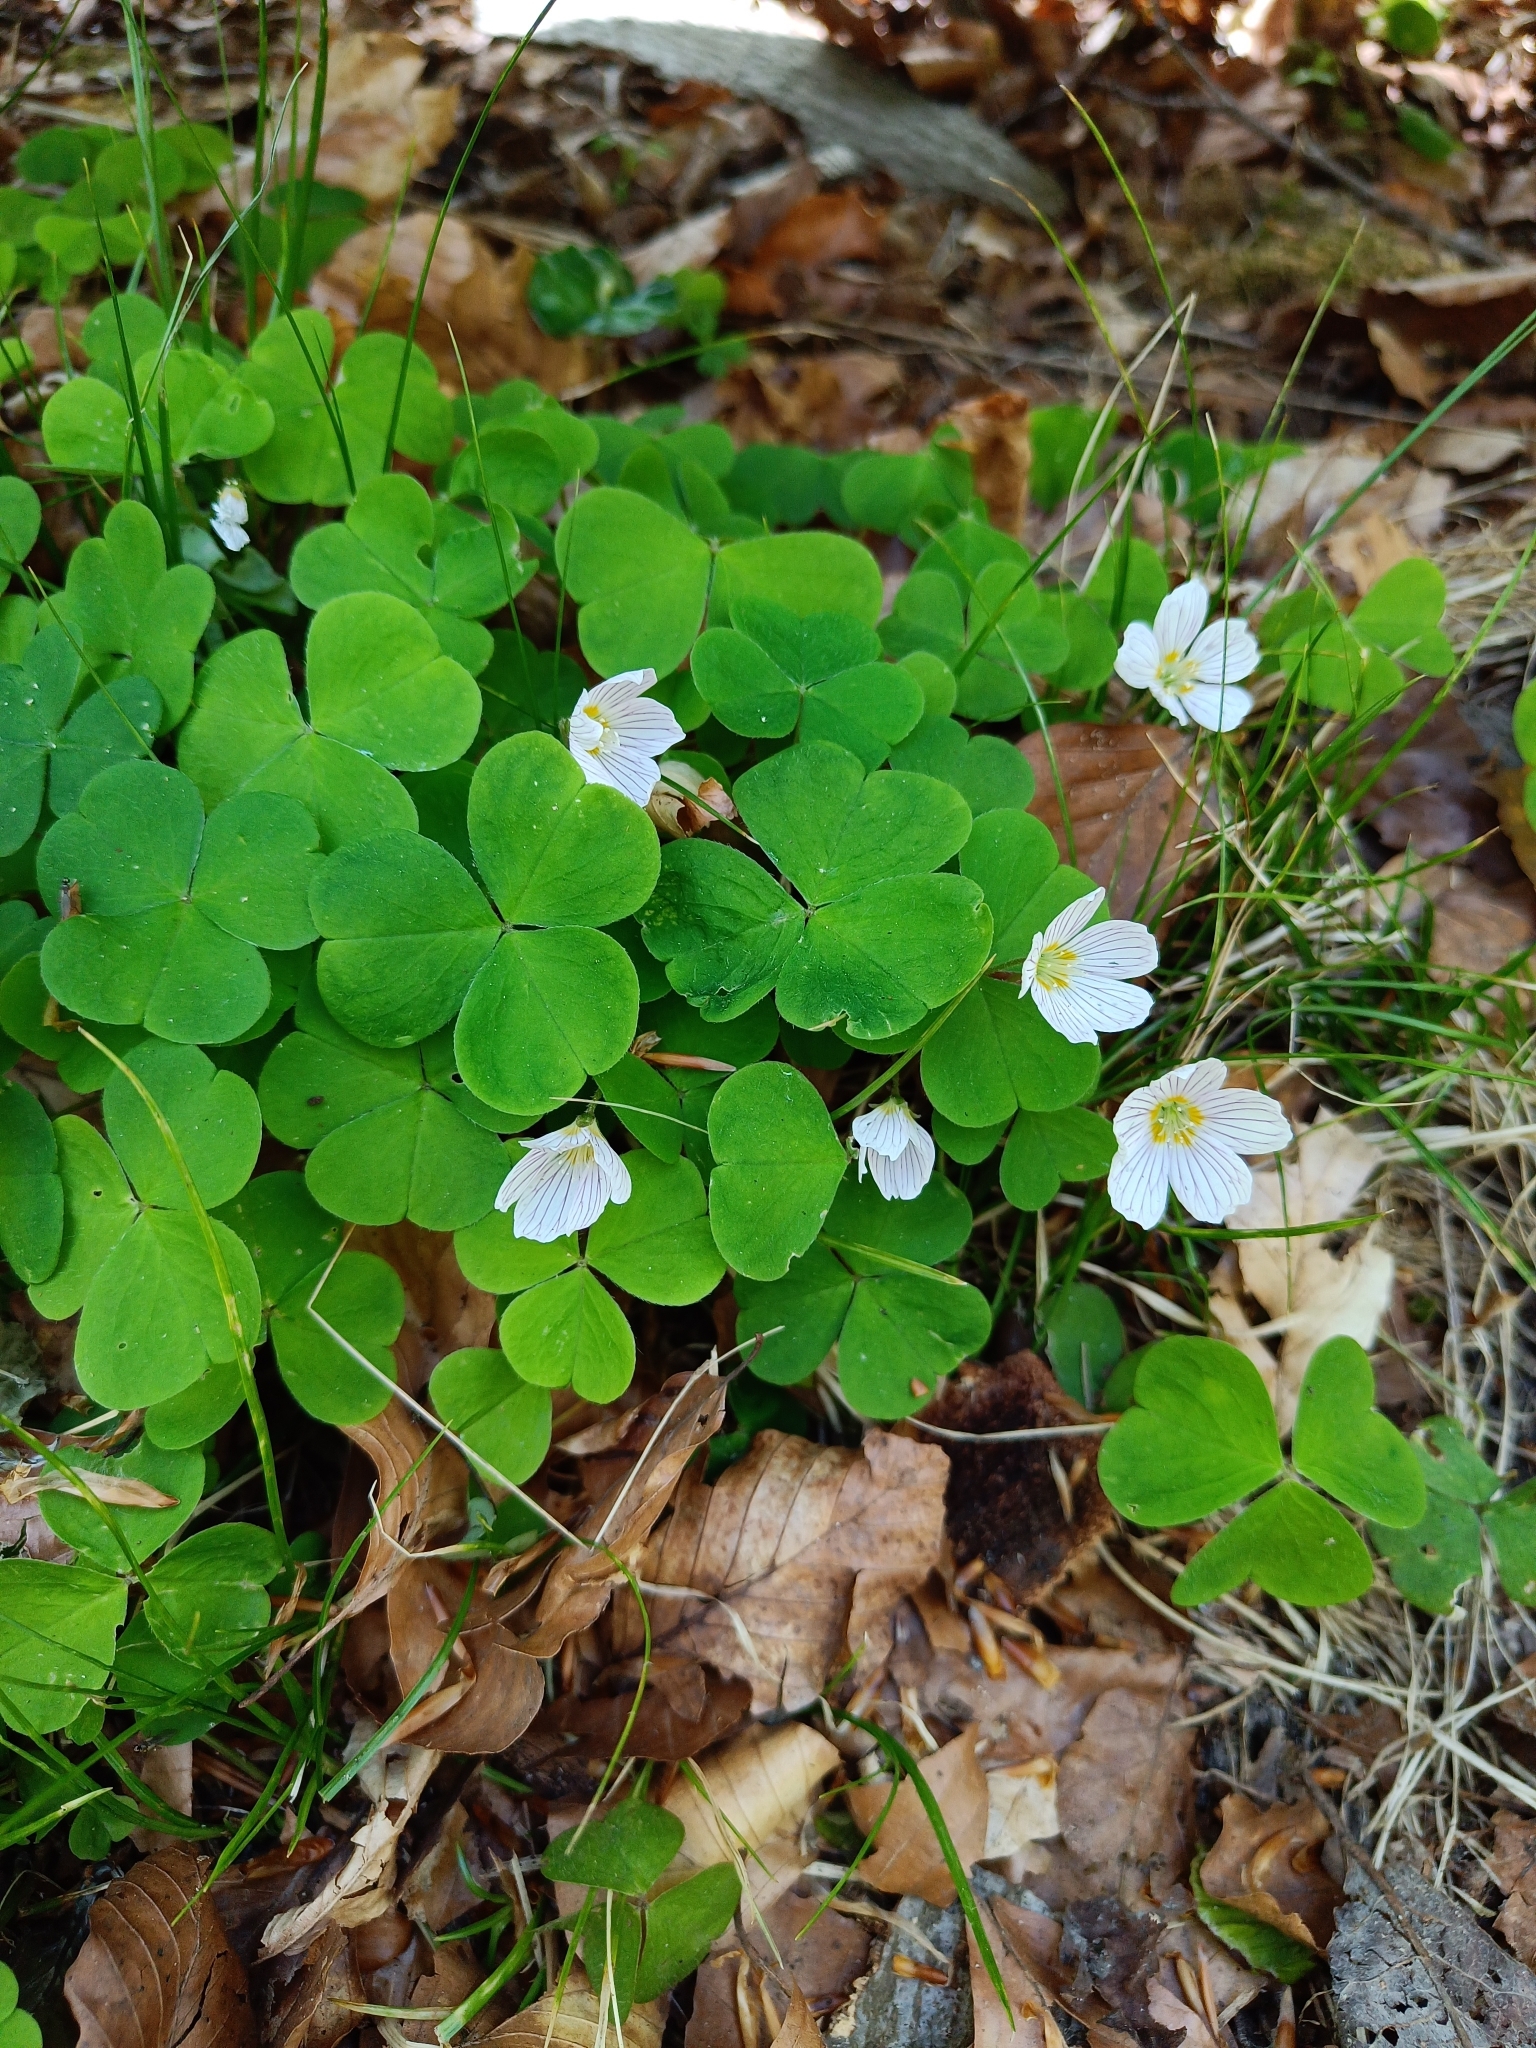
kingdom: Plantae
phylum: Tracheophyta
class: Magnoliopsida
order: Oxalidales
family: Oxalidaceae
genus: Oxalis
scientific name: Oxalis acetosella
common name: Wood-sorrel
